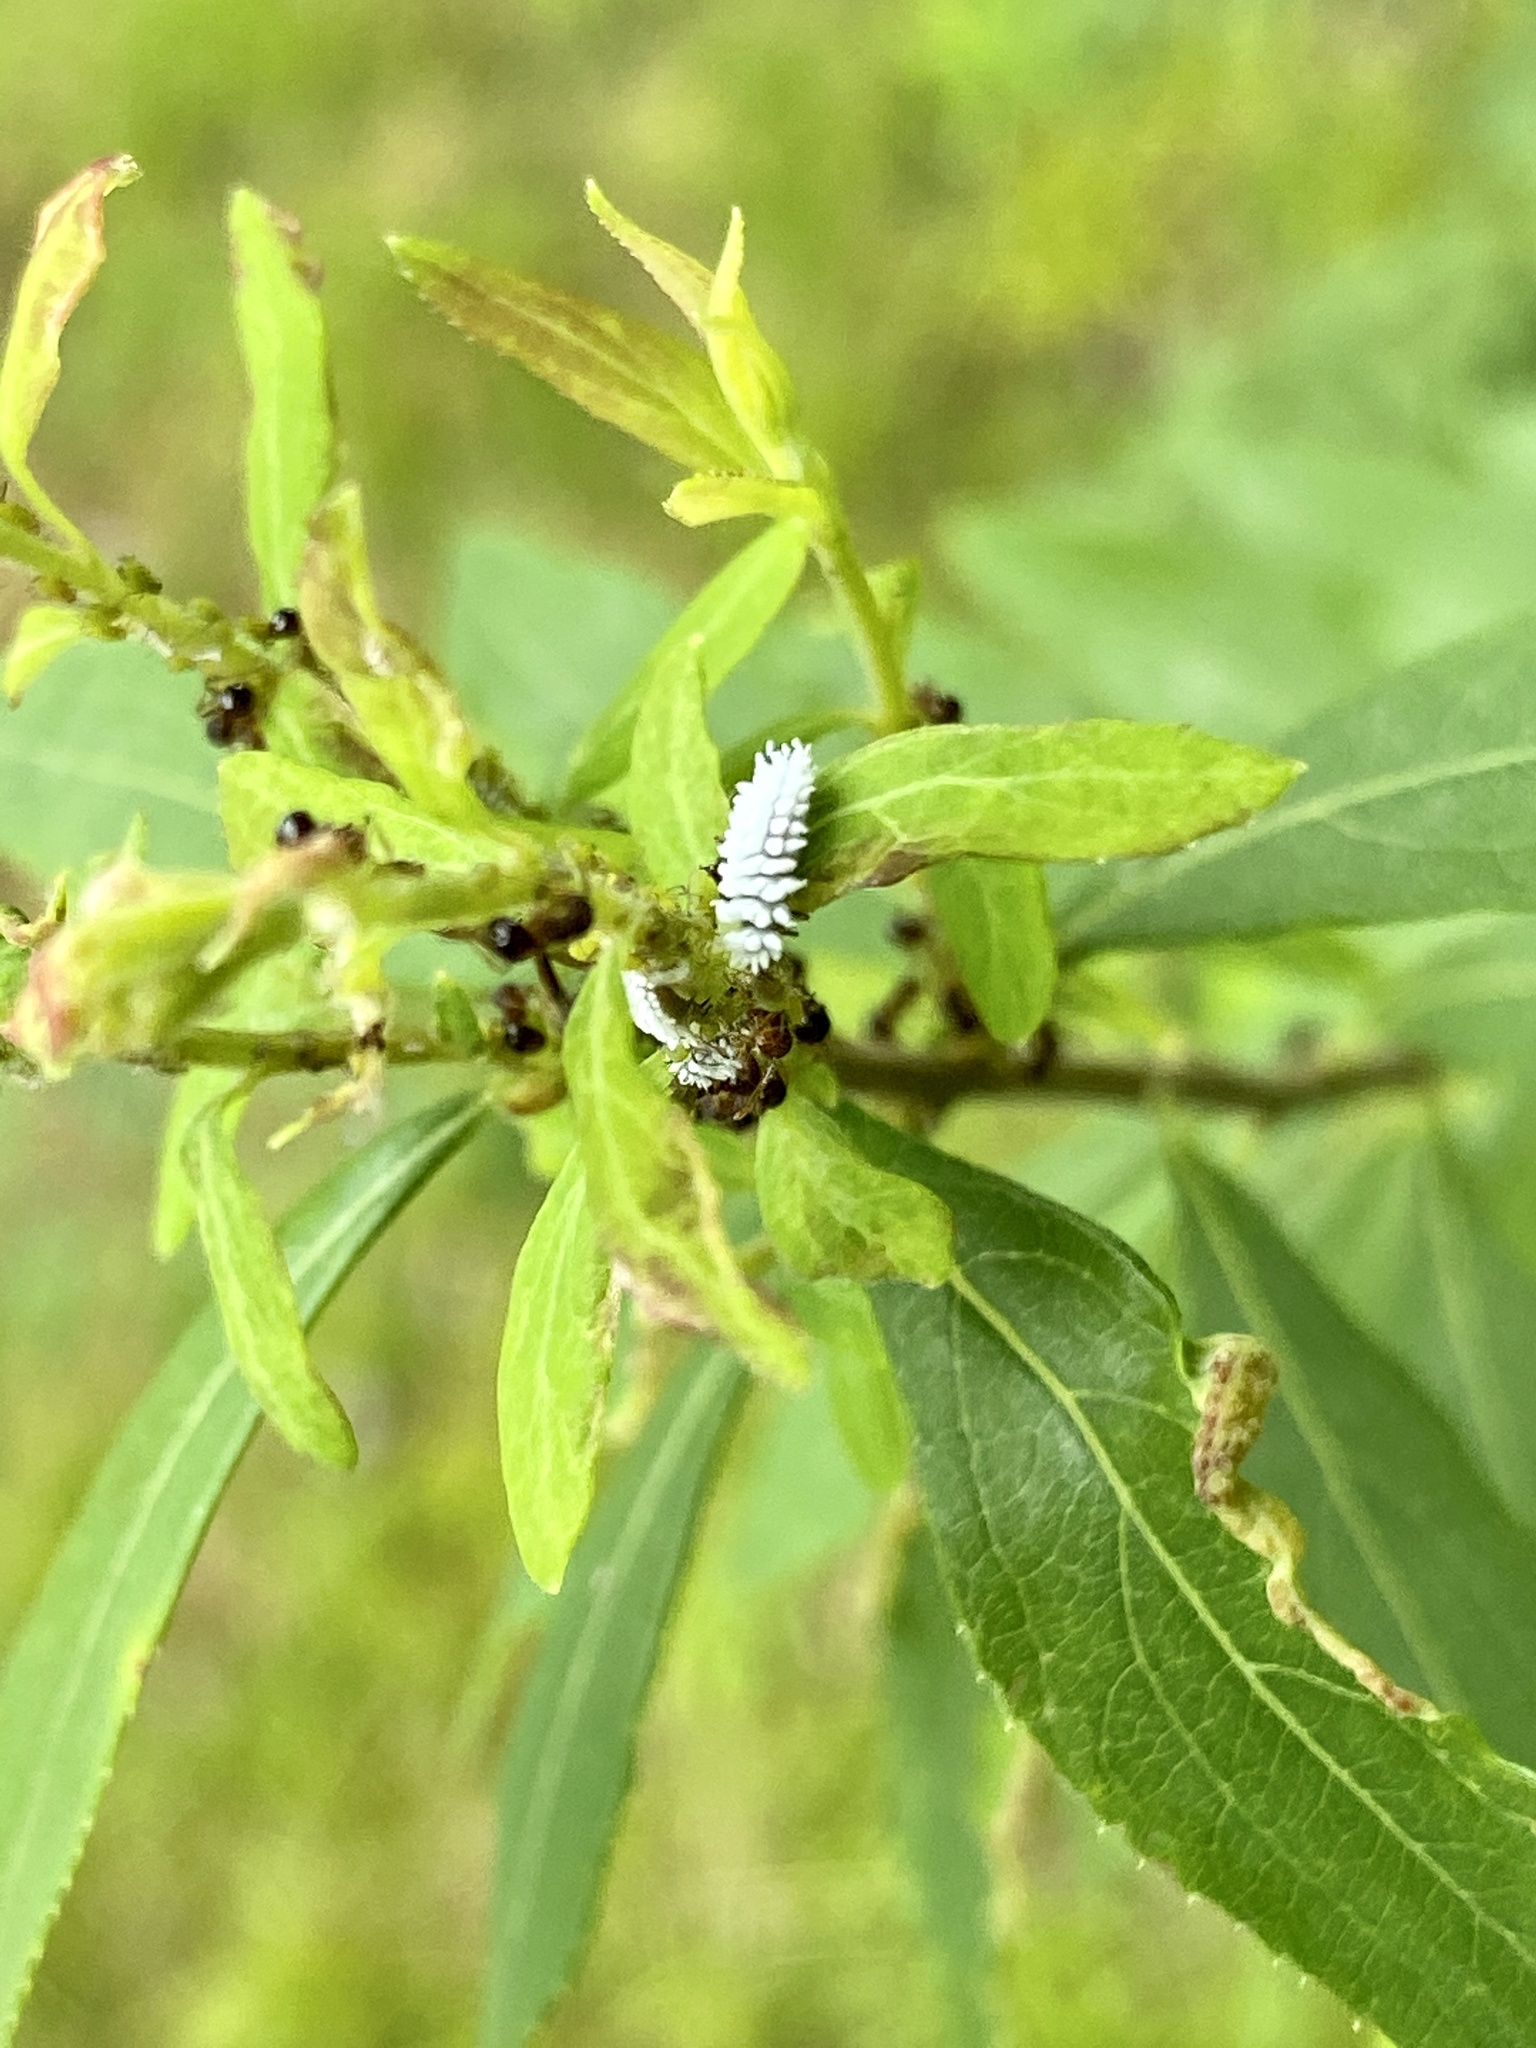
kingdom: Animalia
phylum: Arthropoda
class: Insecta
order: Hymenoptera
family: Formicidae
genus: Pristomyrmex
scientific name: Pristomyrmex punctatus
